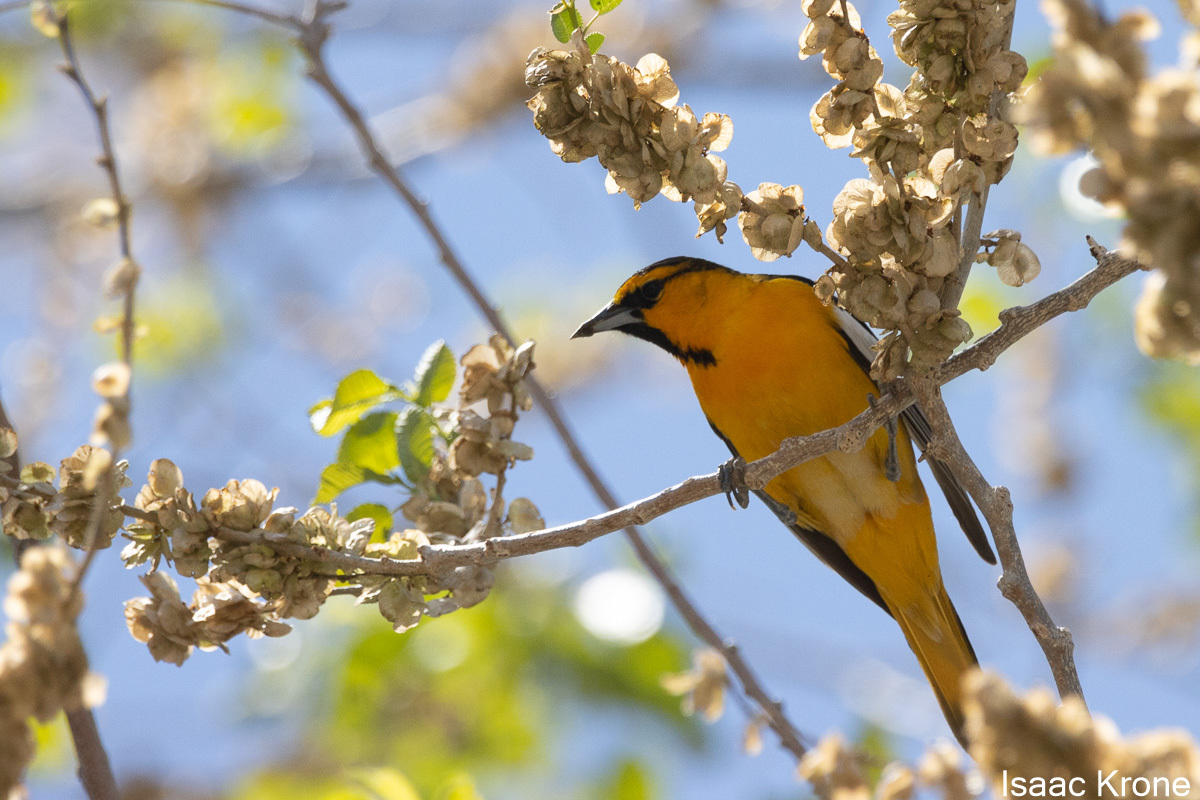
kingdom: Animalia
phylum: Chordata
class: Aves
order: Passeriformes
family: Icteridae
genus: Icterus
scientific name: Icterus bullockii
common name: Bullock's oriole
